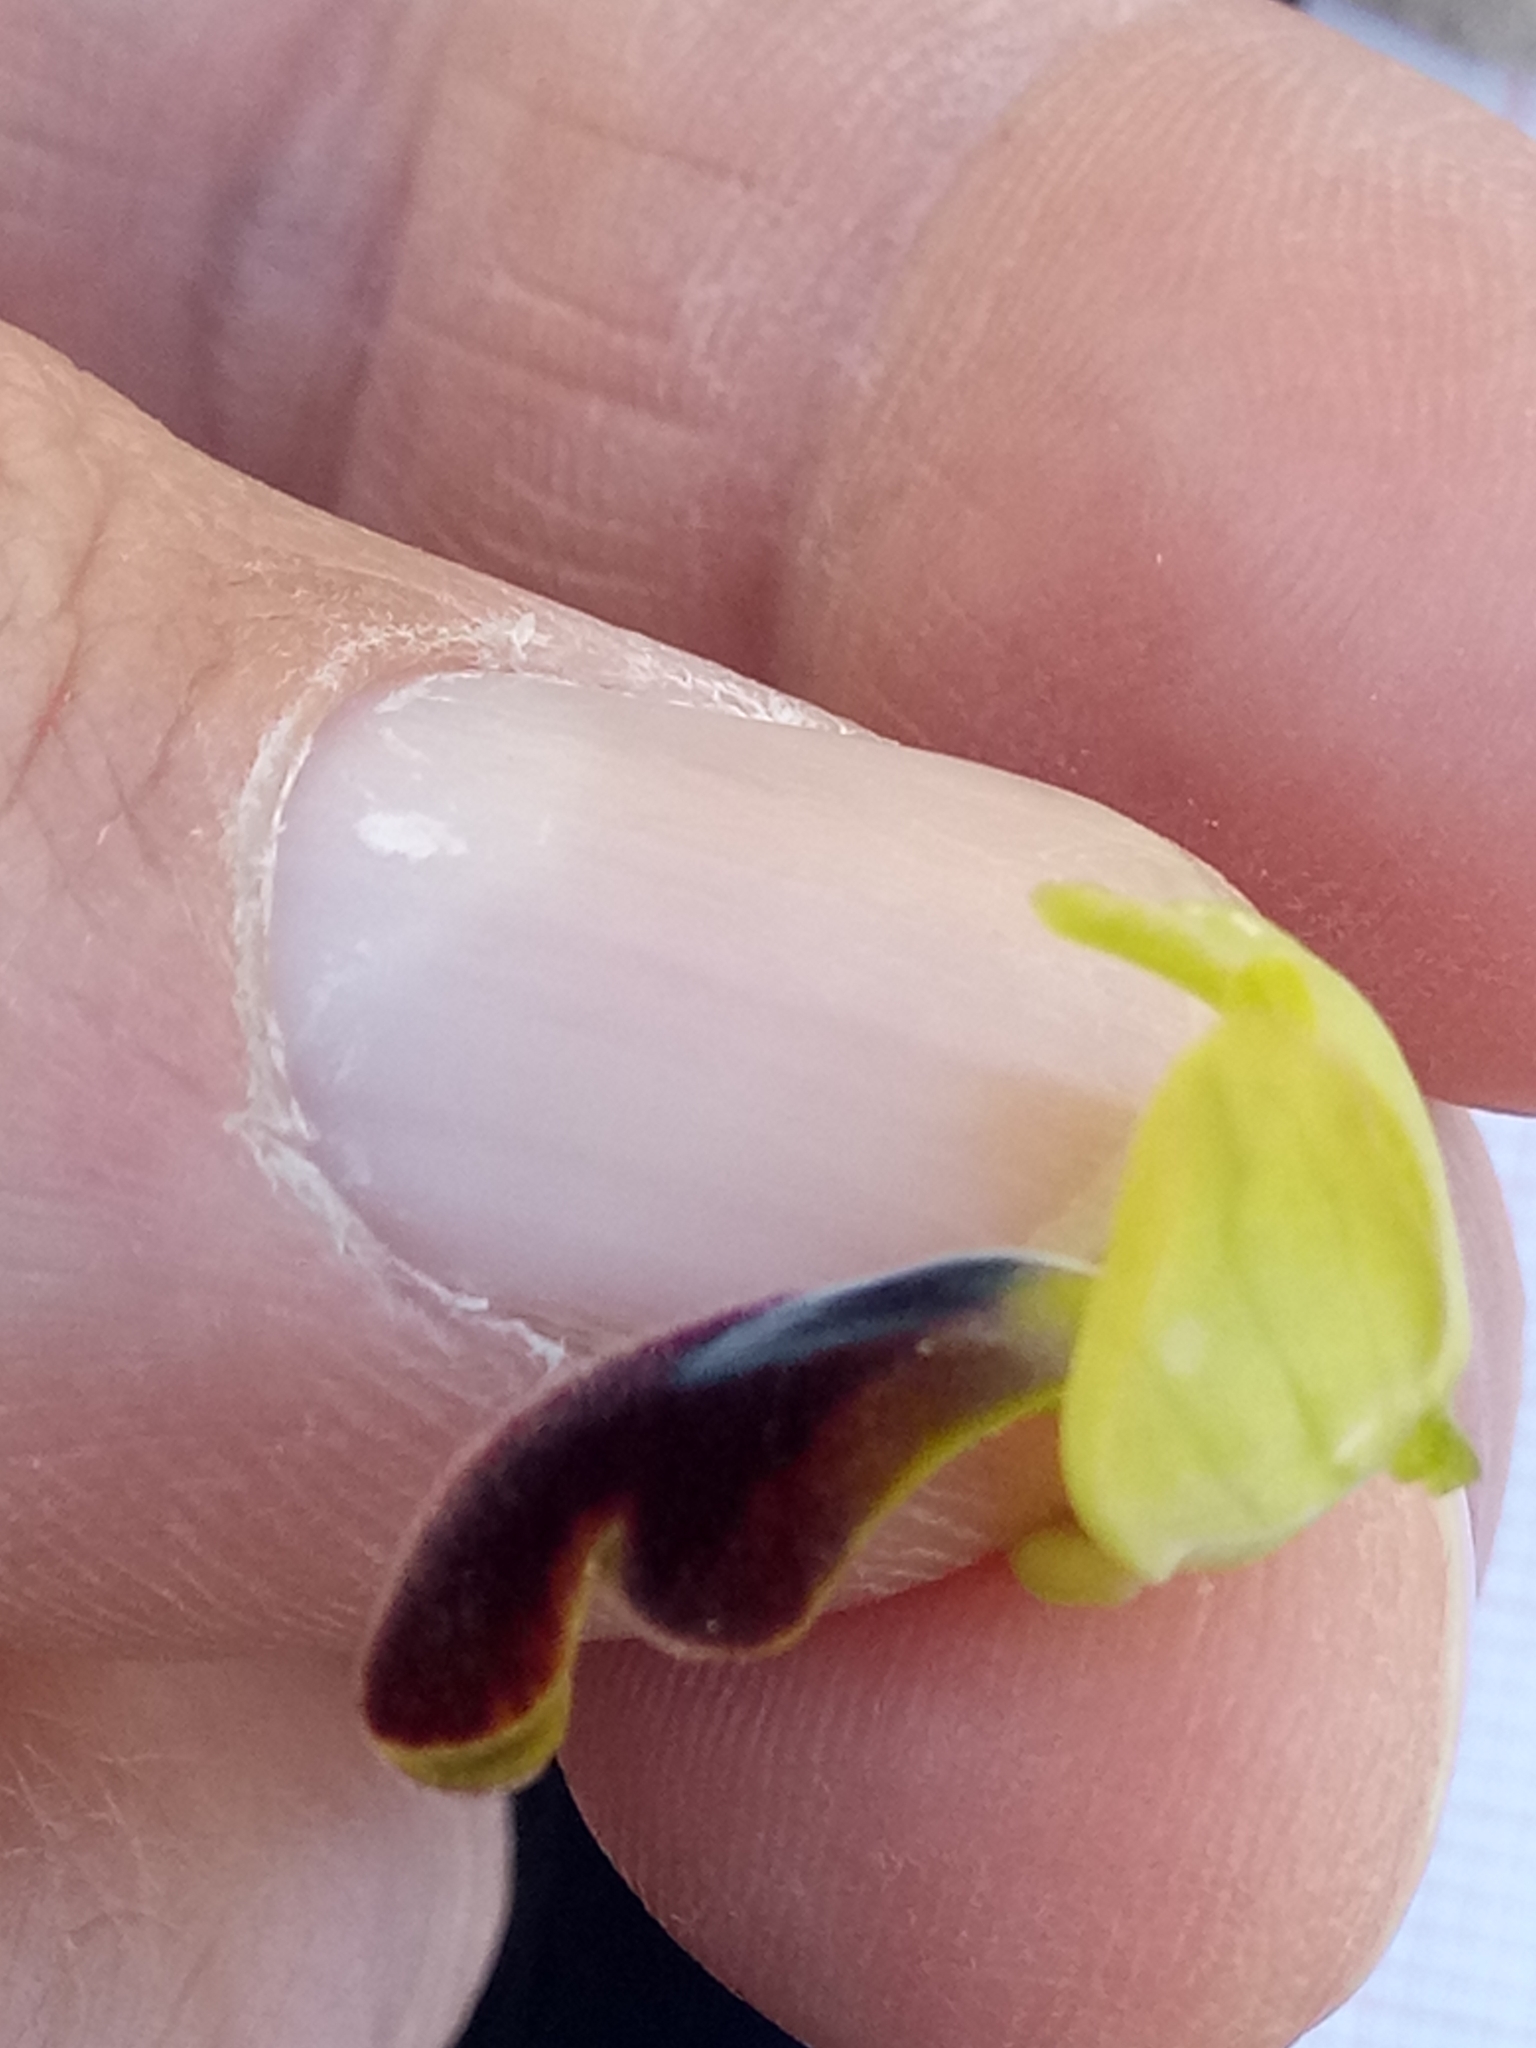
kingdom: Plantae
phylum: Tracheophyta
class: Liliopsida
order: Asparagales
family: Orchidaceae
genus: Ophrys
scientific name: Ophrys fusca
